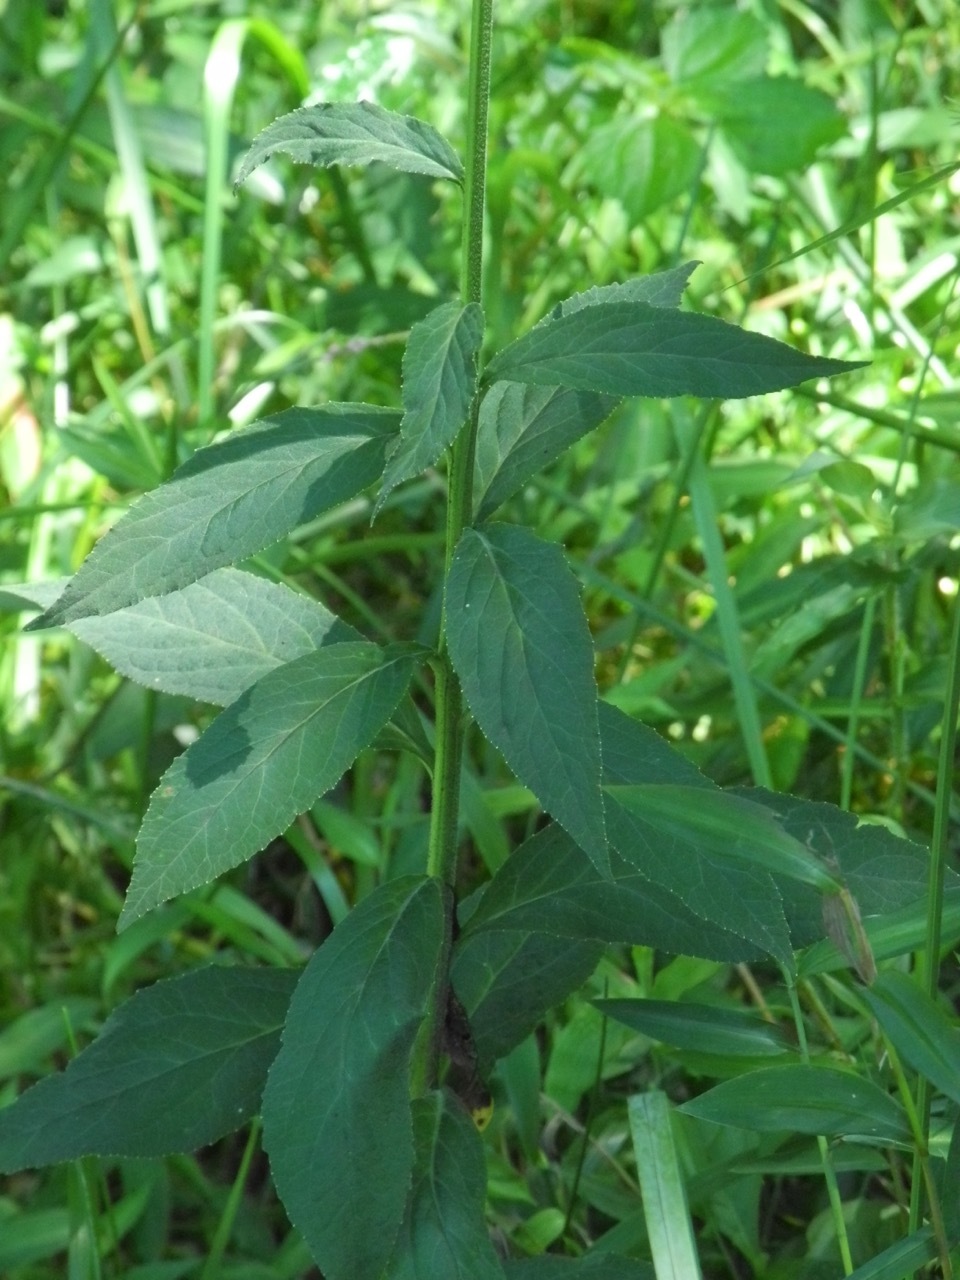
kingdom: Plantae
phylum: Tracheophyta
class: Magnoliopsida
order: Asterales
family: Campanulaceae
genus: Lobelia
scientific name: Lobelia cardinalis
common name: Cardinal flower
